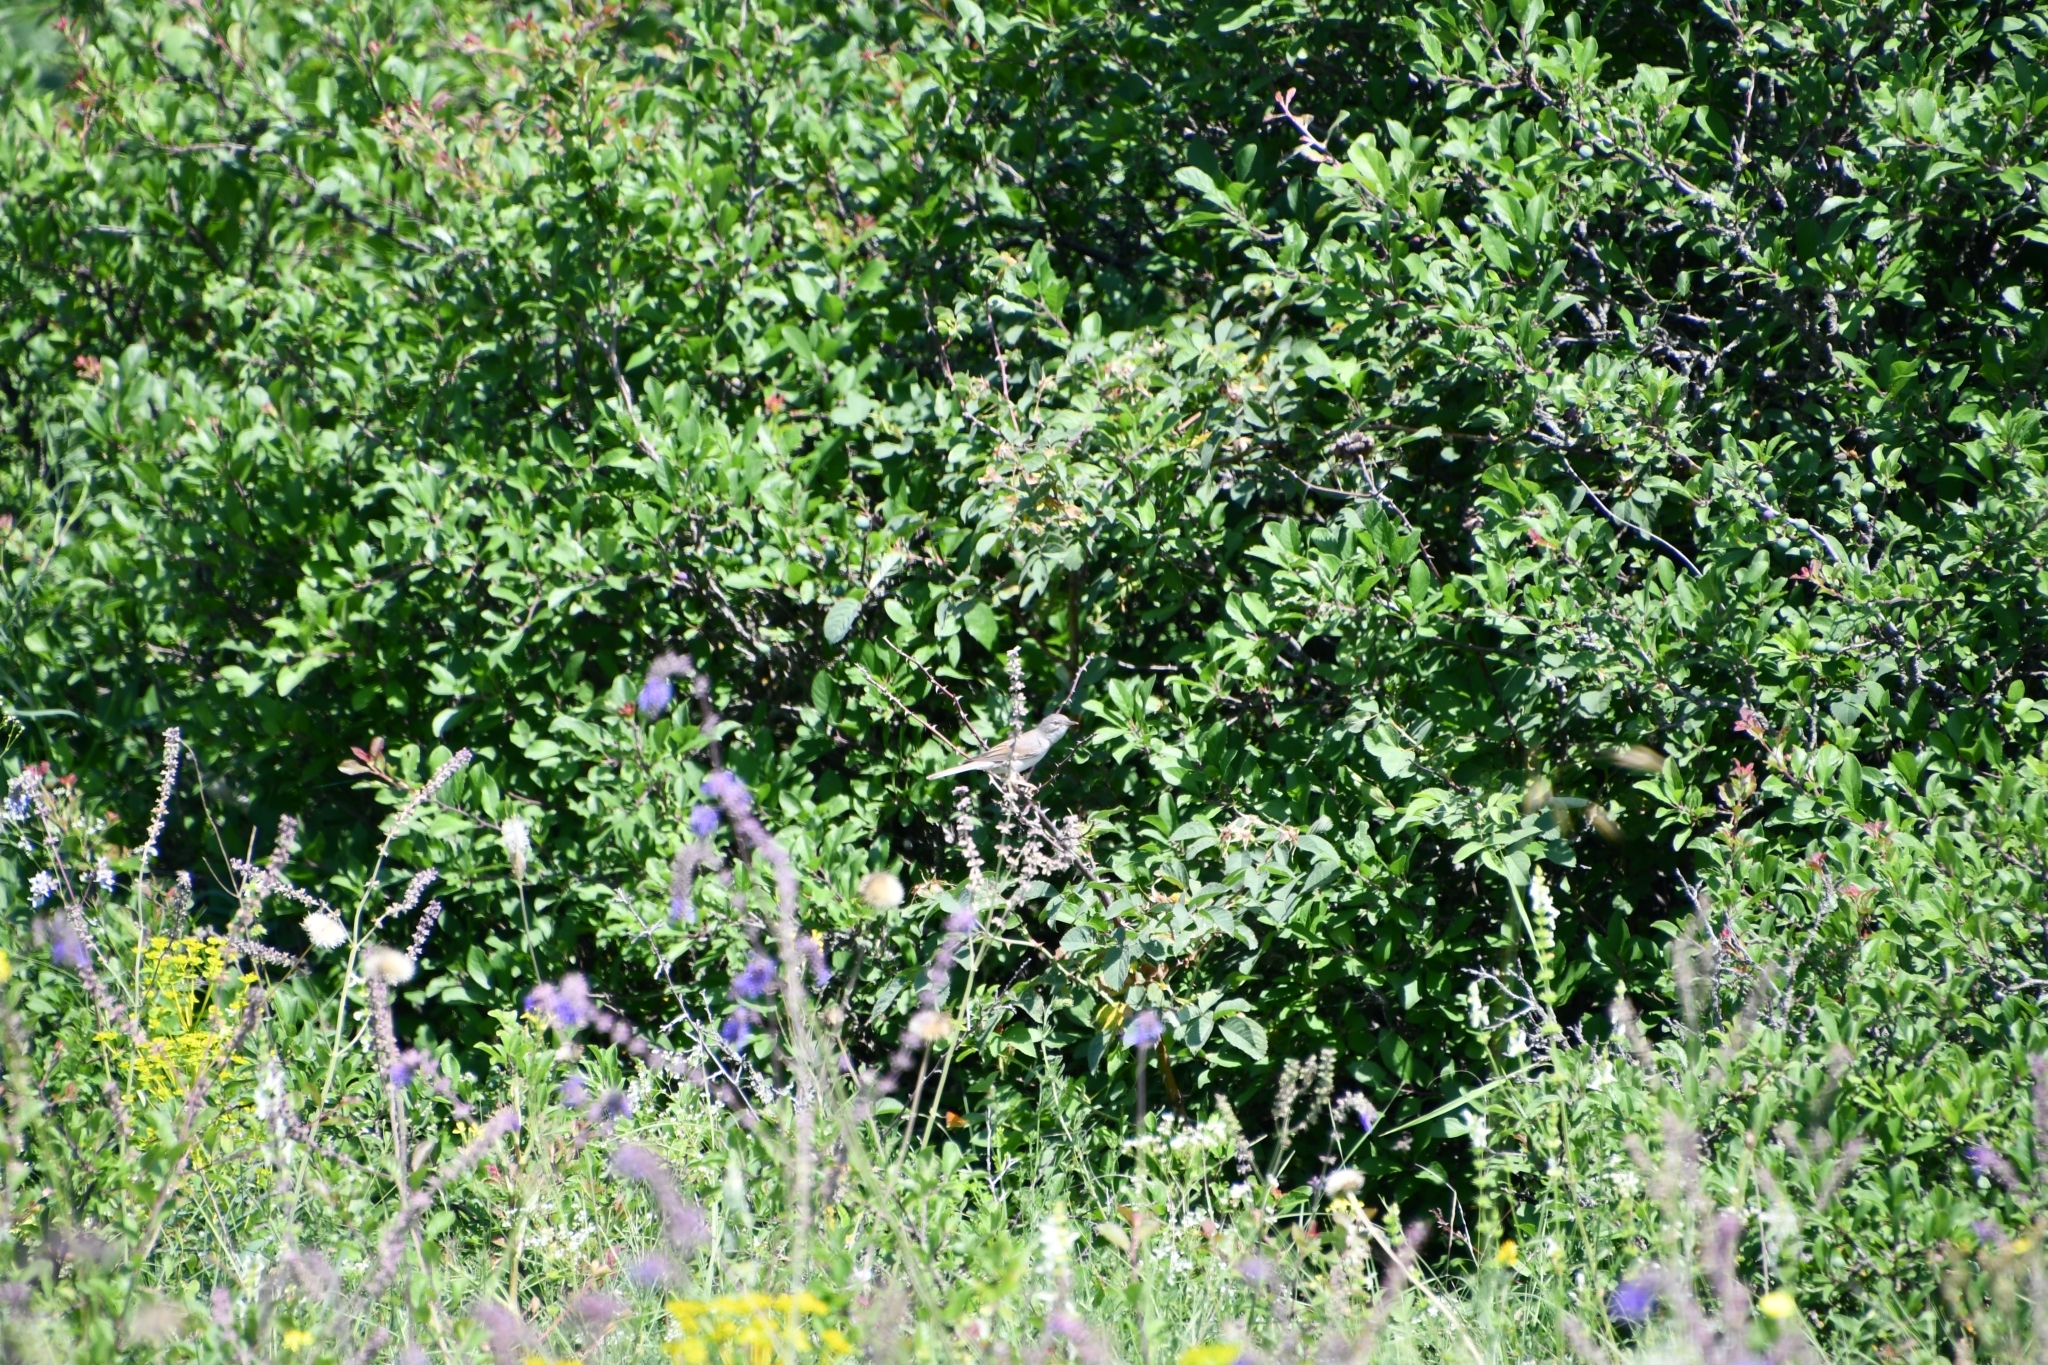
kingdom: Animalia
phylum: Chordata
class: Aves
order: Passeriformes
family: Sylviidae
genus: Sylvia
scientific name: Sylvia communis
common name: Common whitethroat
